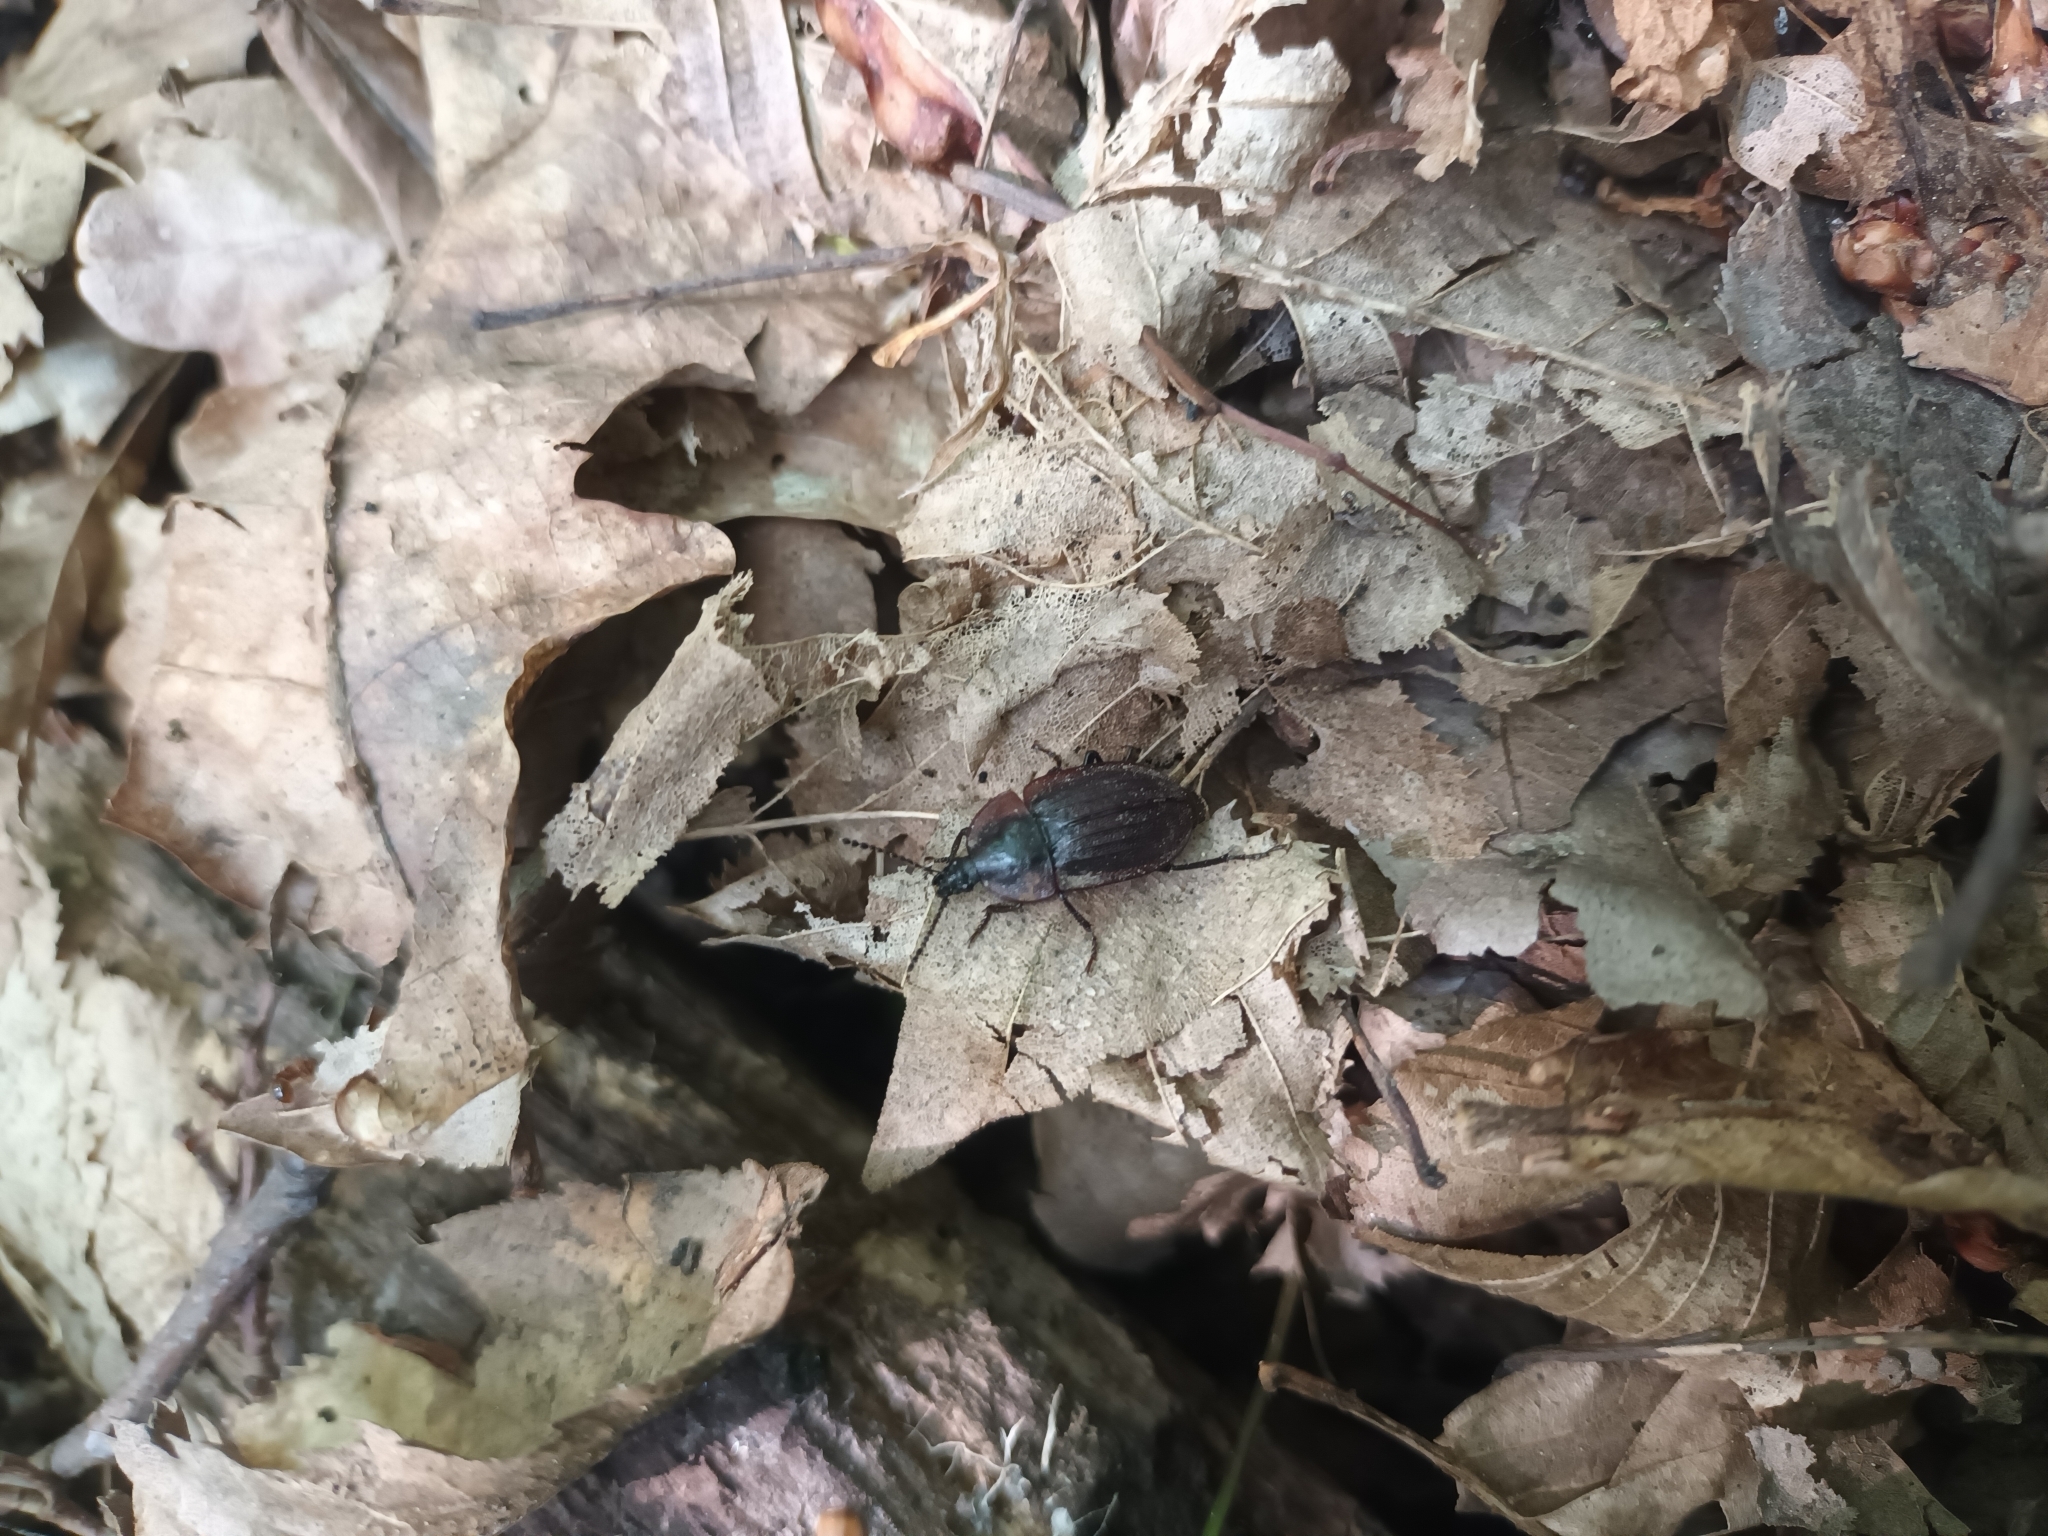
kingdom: Animalia
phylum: Arthropoda
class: Insecta
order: Coleoptera
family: Staphylinidae
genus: Silpha
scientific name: Silpha atrata
